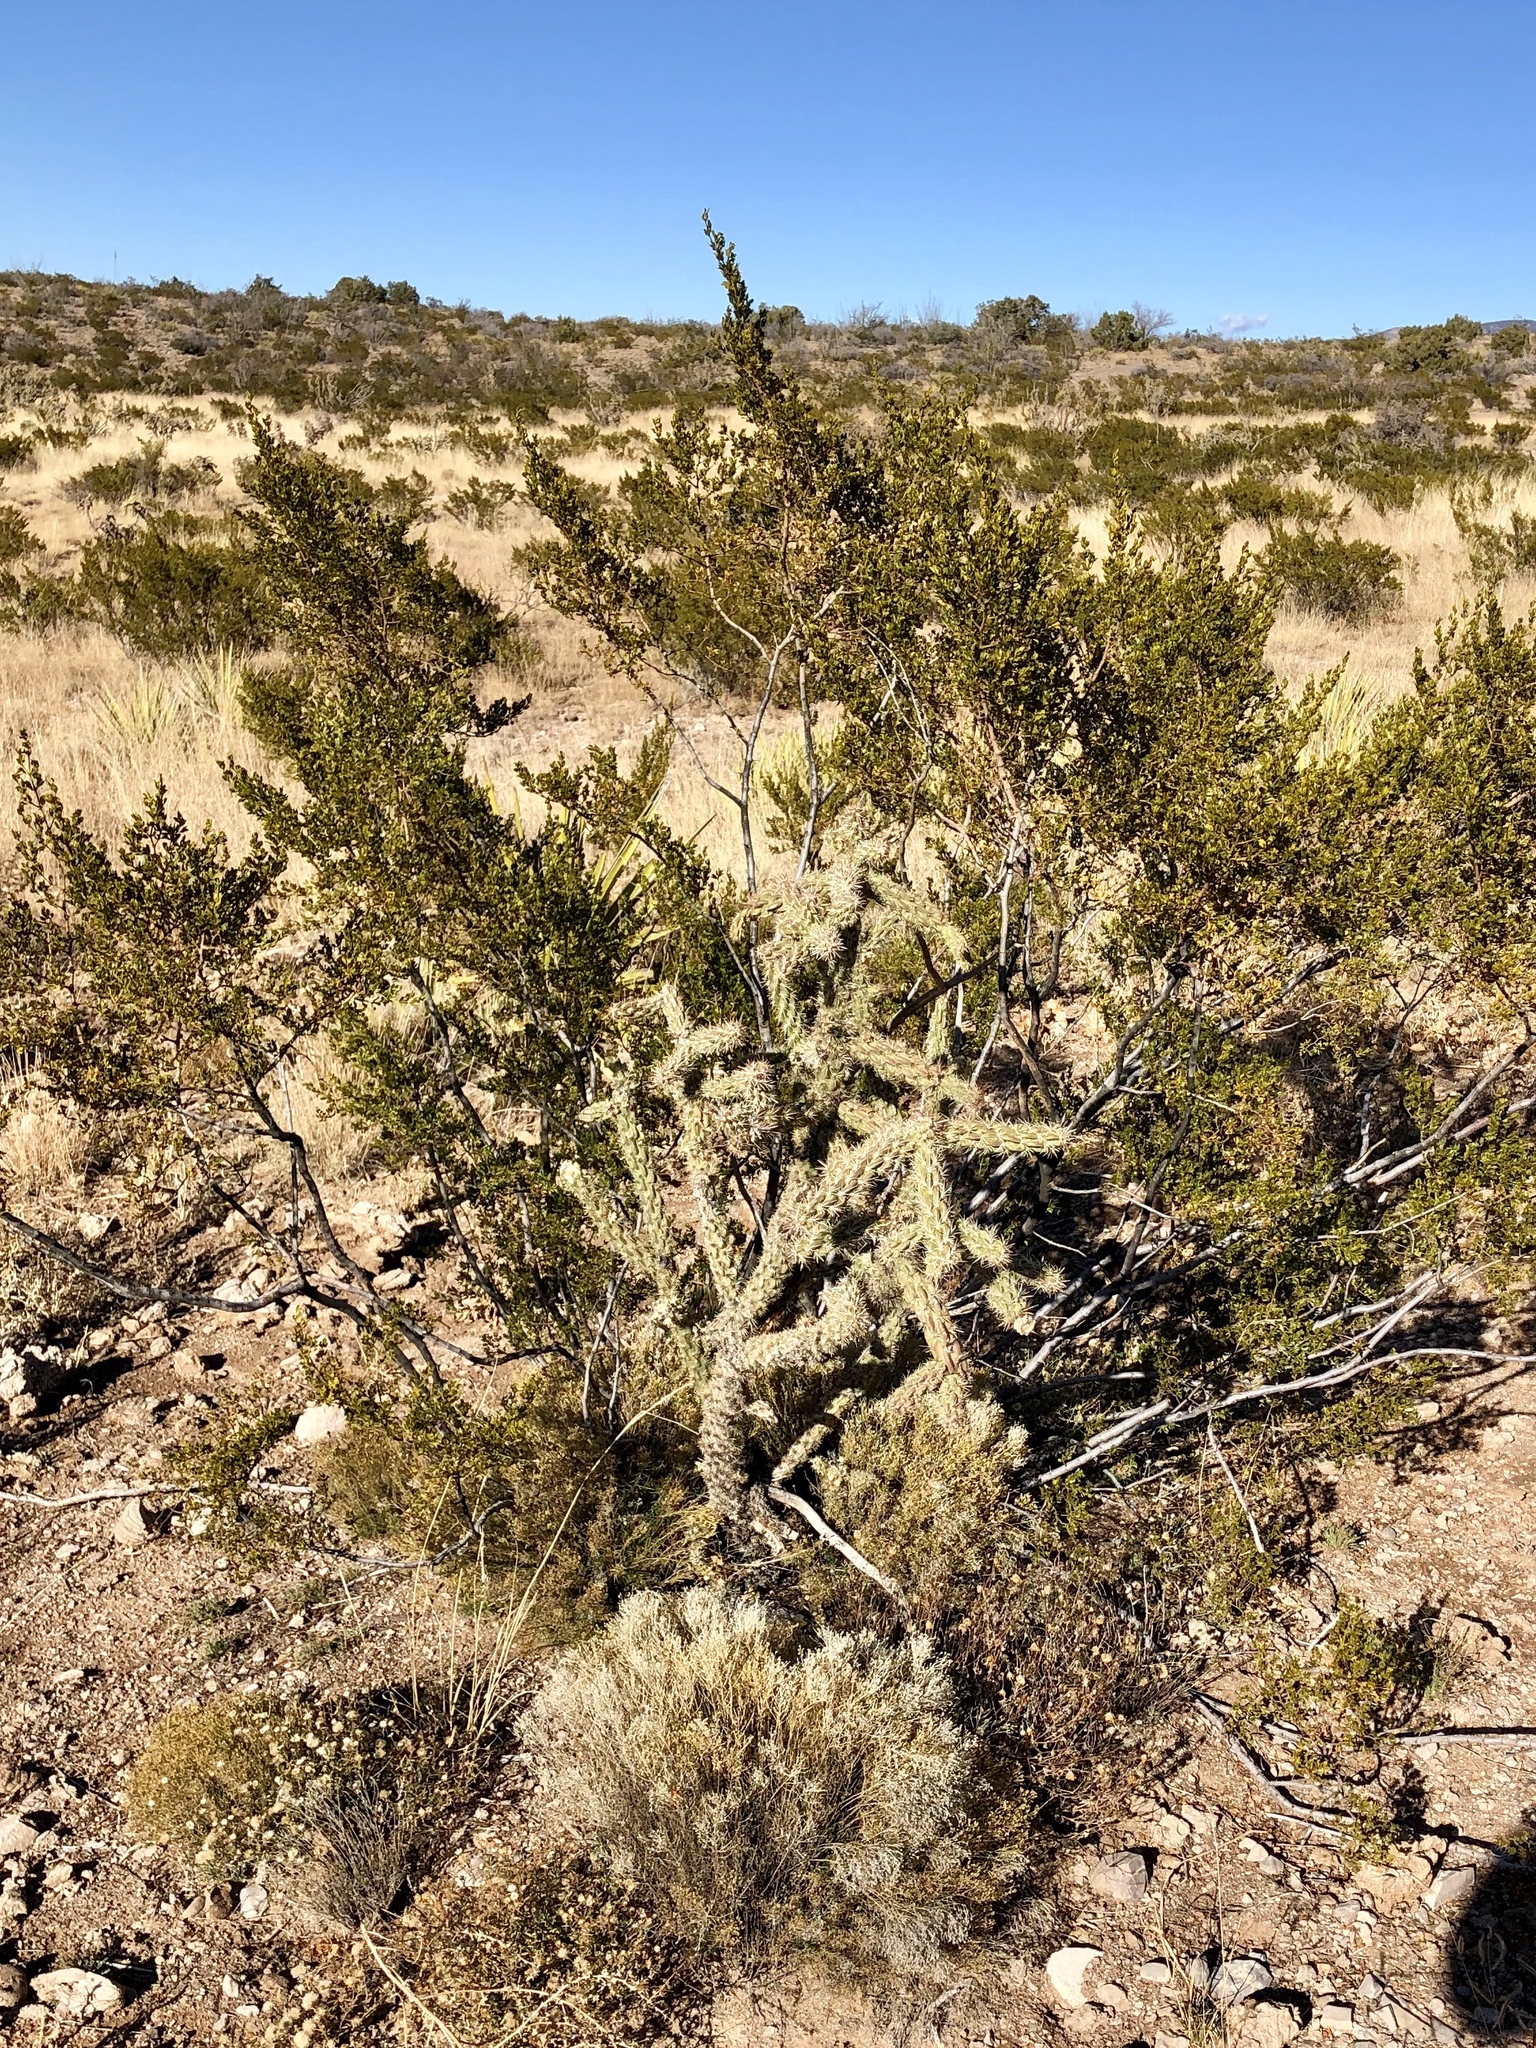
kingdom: Plantae
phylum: Tracheophyta
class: Magnoliopsida
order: Zygophyllales
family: Zygophyllaceae
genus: Larrea
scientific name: Larrea tridentata
